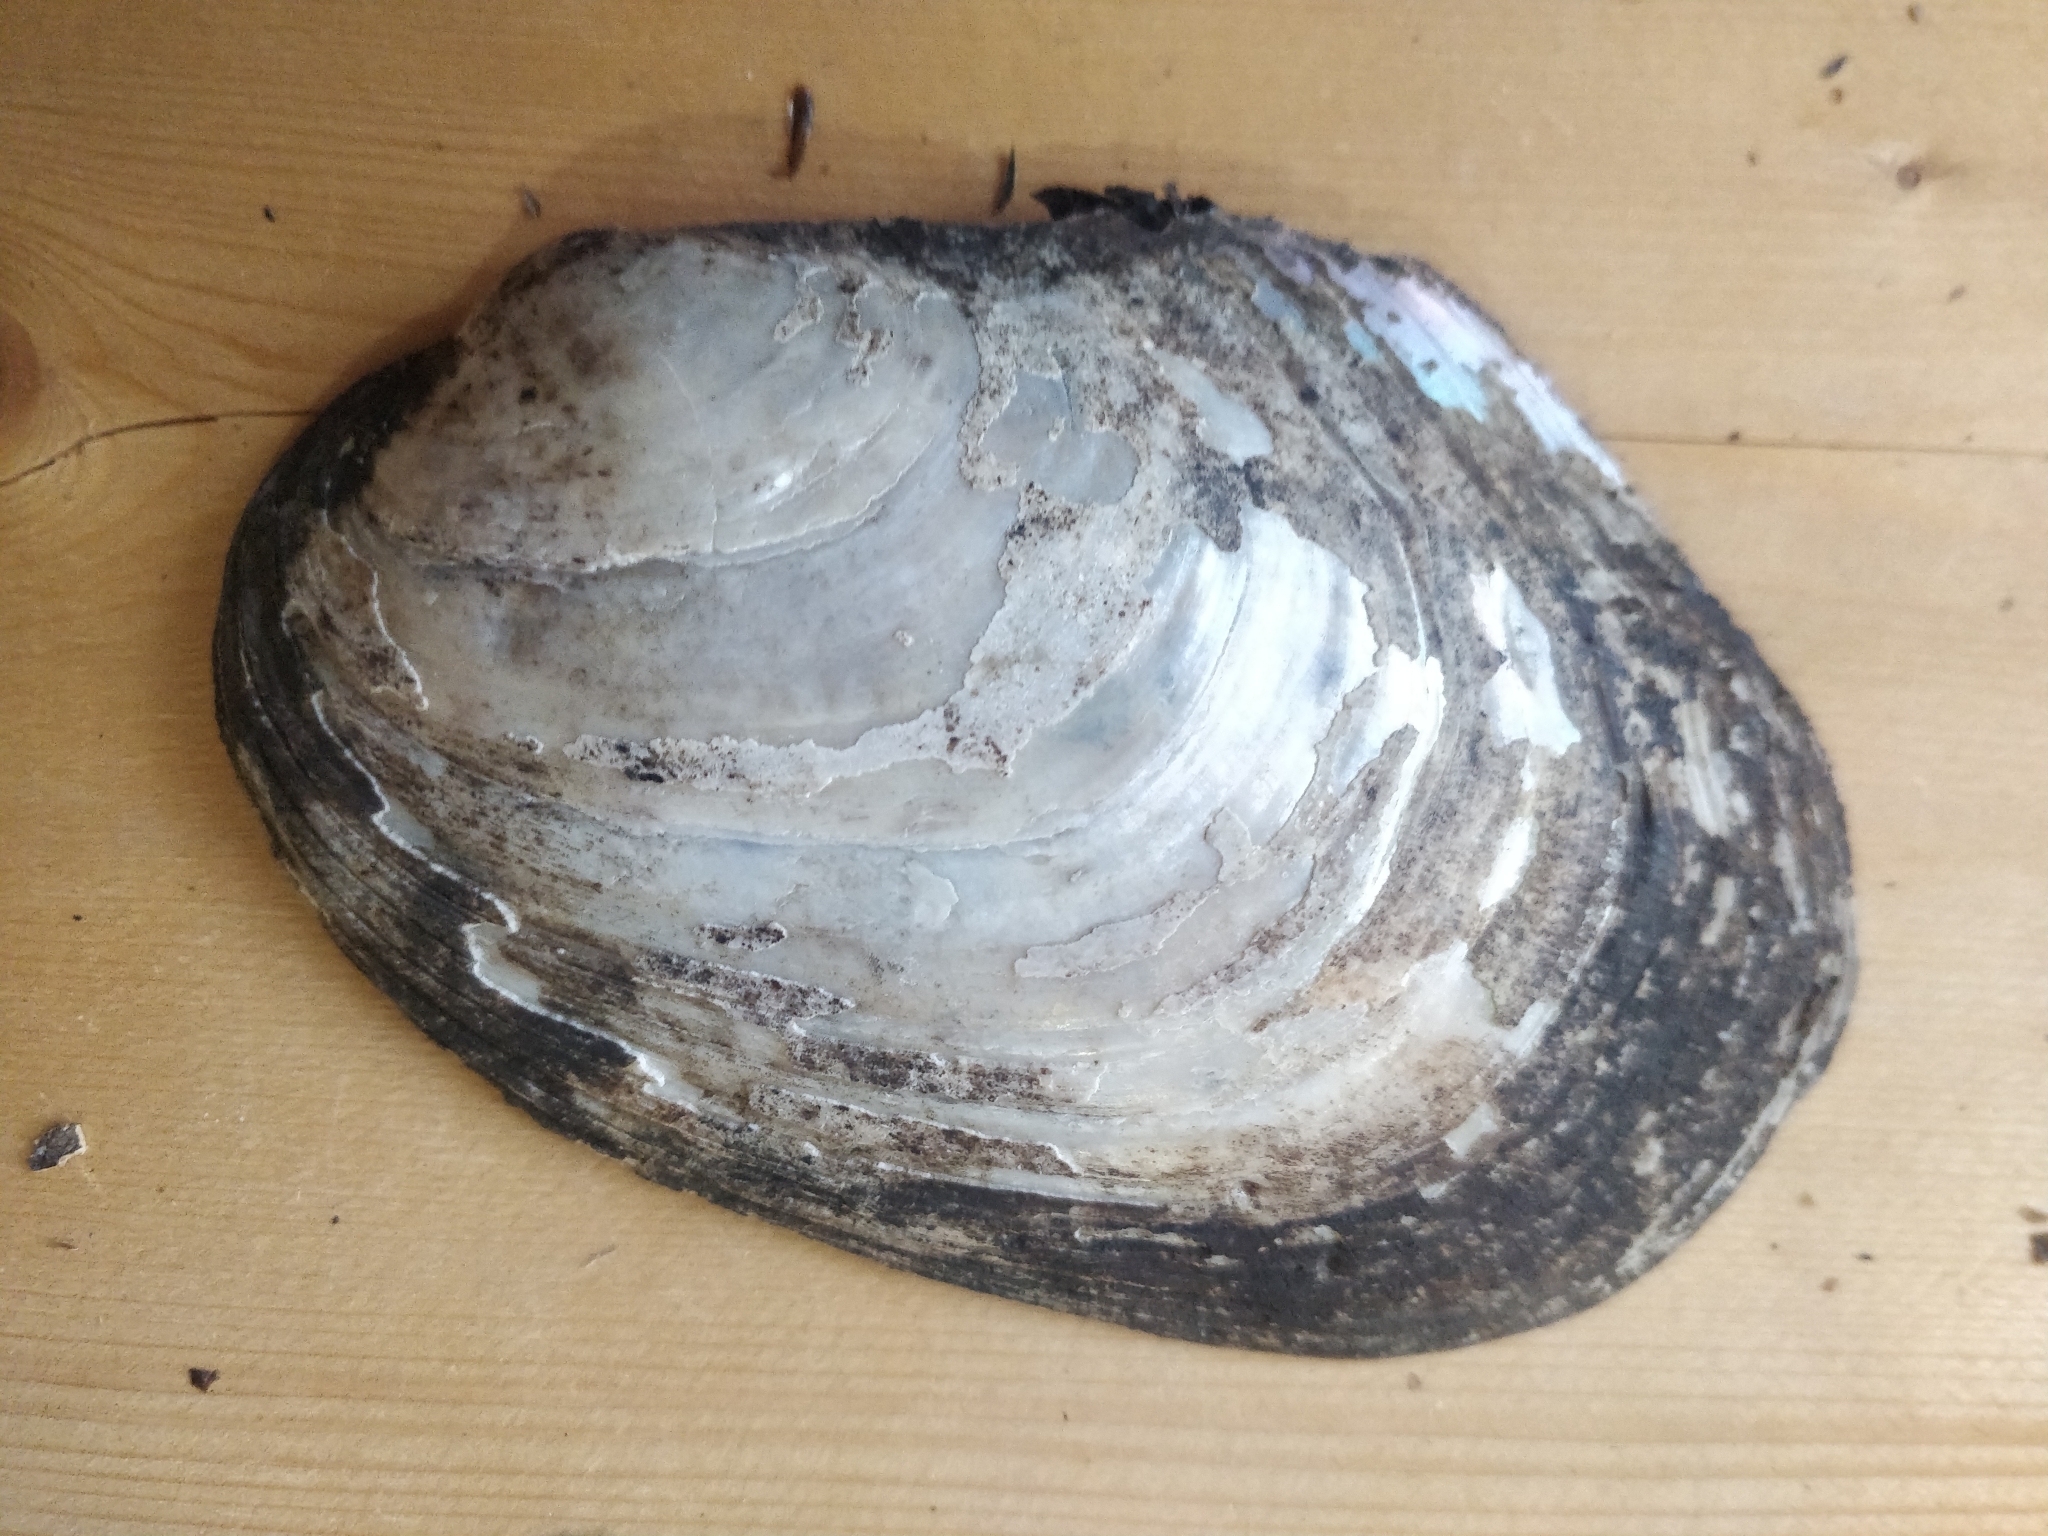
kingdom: Animalia
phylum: Mollusca
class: Bivalvia
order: Unionida
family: Unionidae
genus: Potamilus
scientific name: Potamilus alatus
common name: Pink heelsplitter
